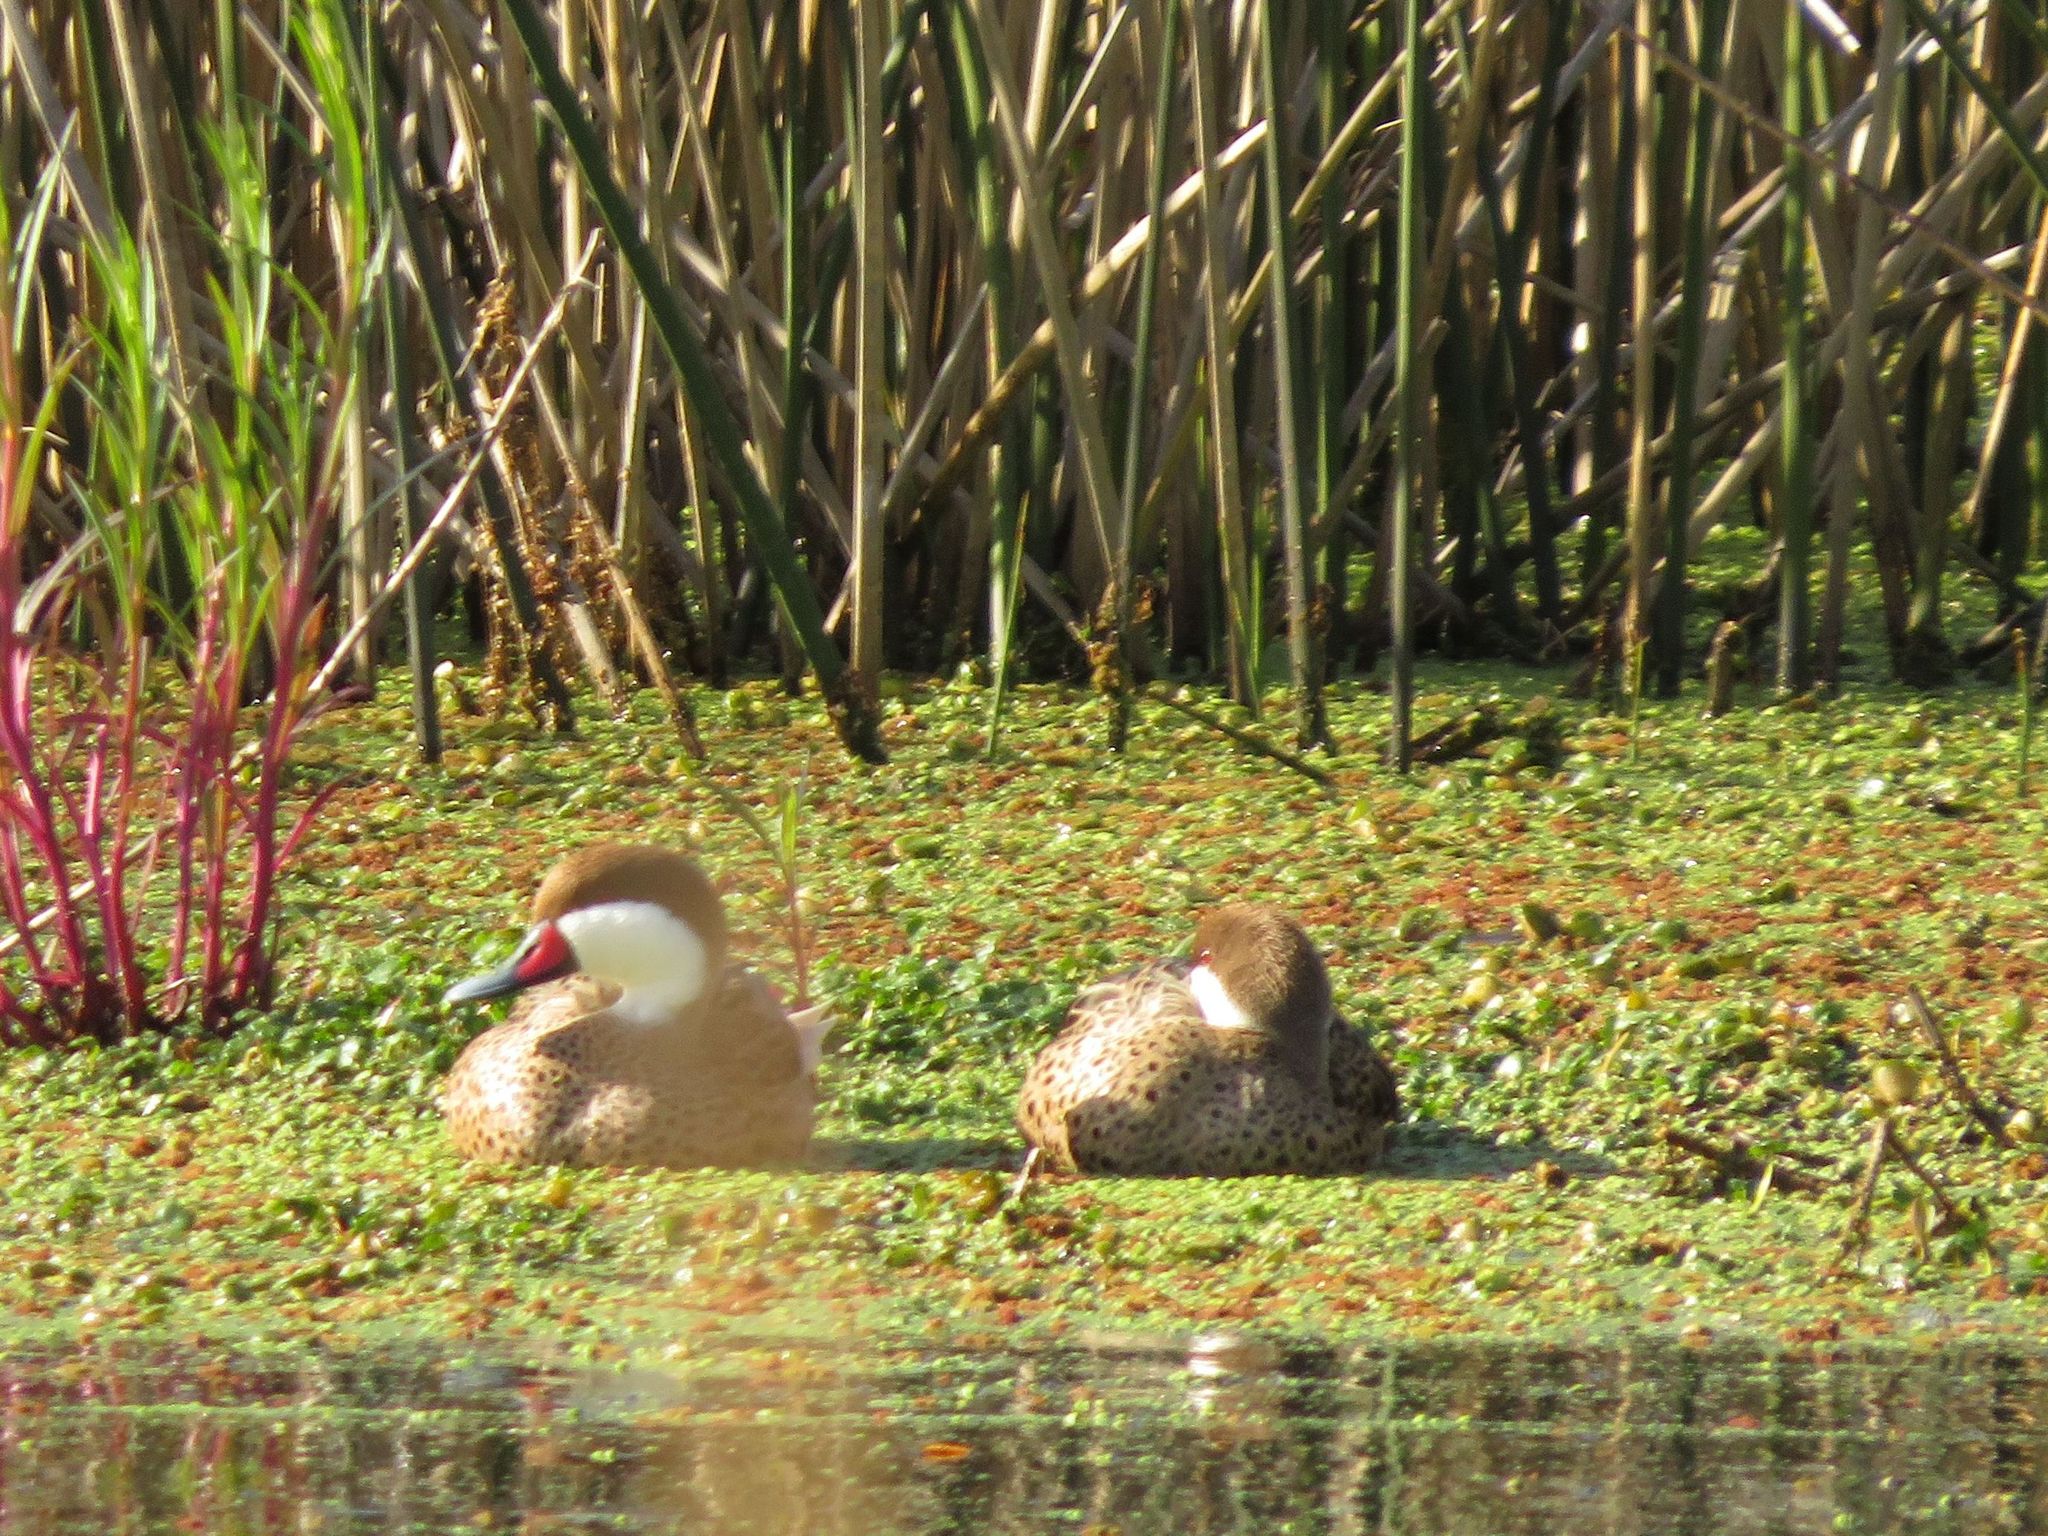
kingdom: Animalia
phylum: Chordata
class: Aves
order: Anseriformes
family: Anatidae
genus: Anas
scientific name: Anas bahamensis
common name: White-cheeked pintail
